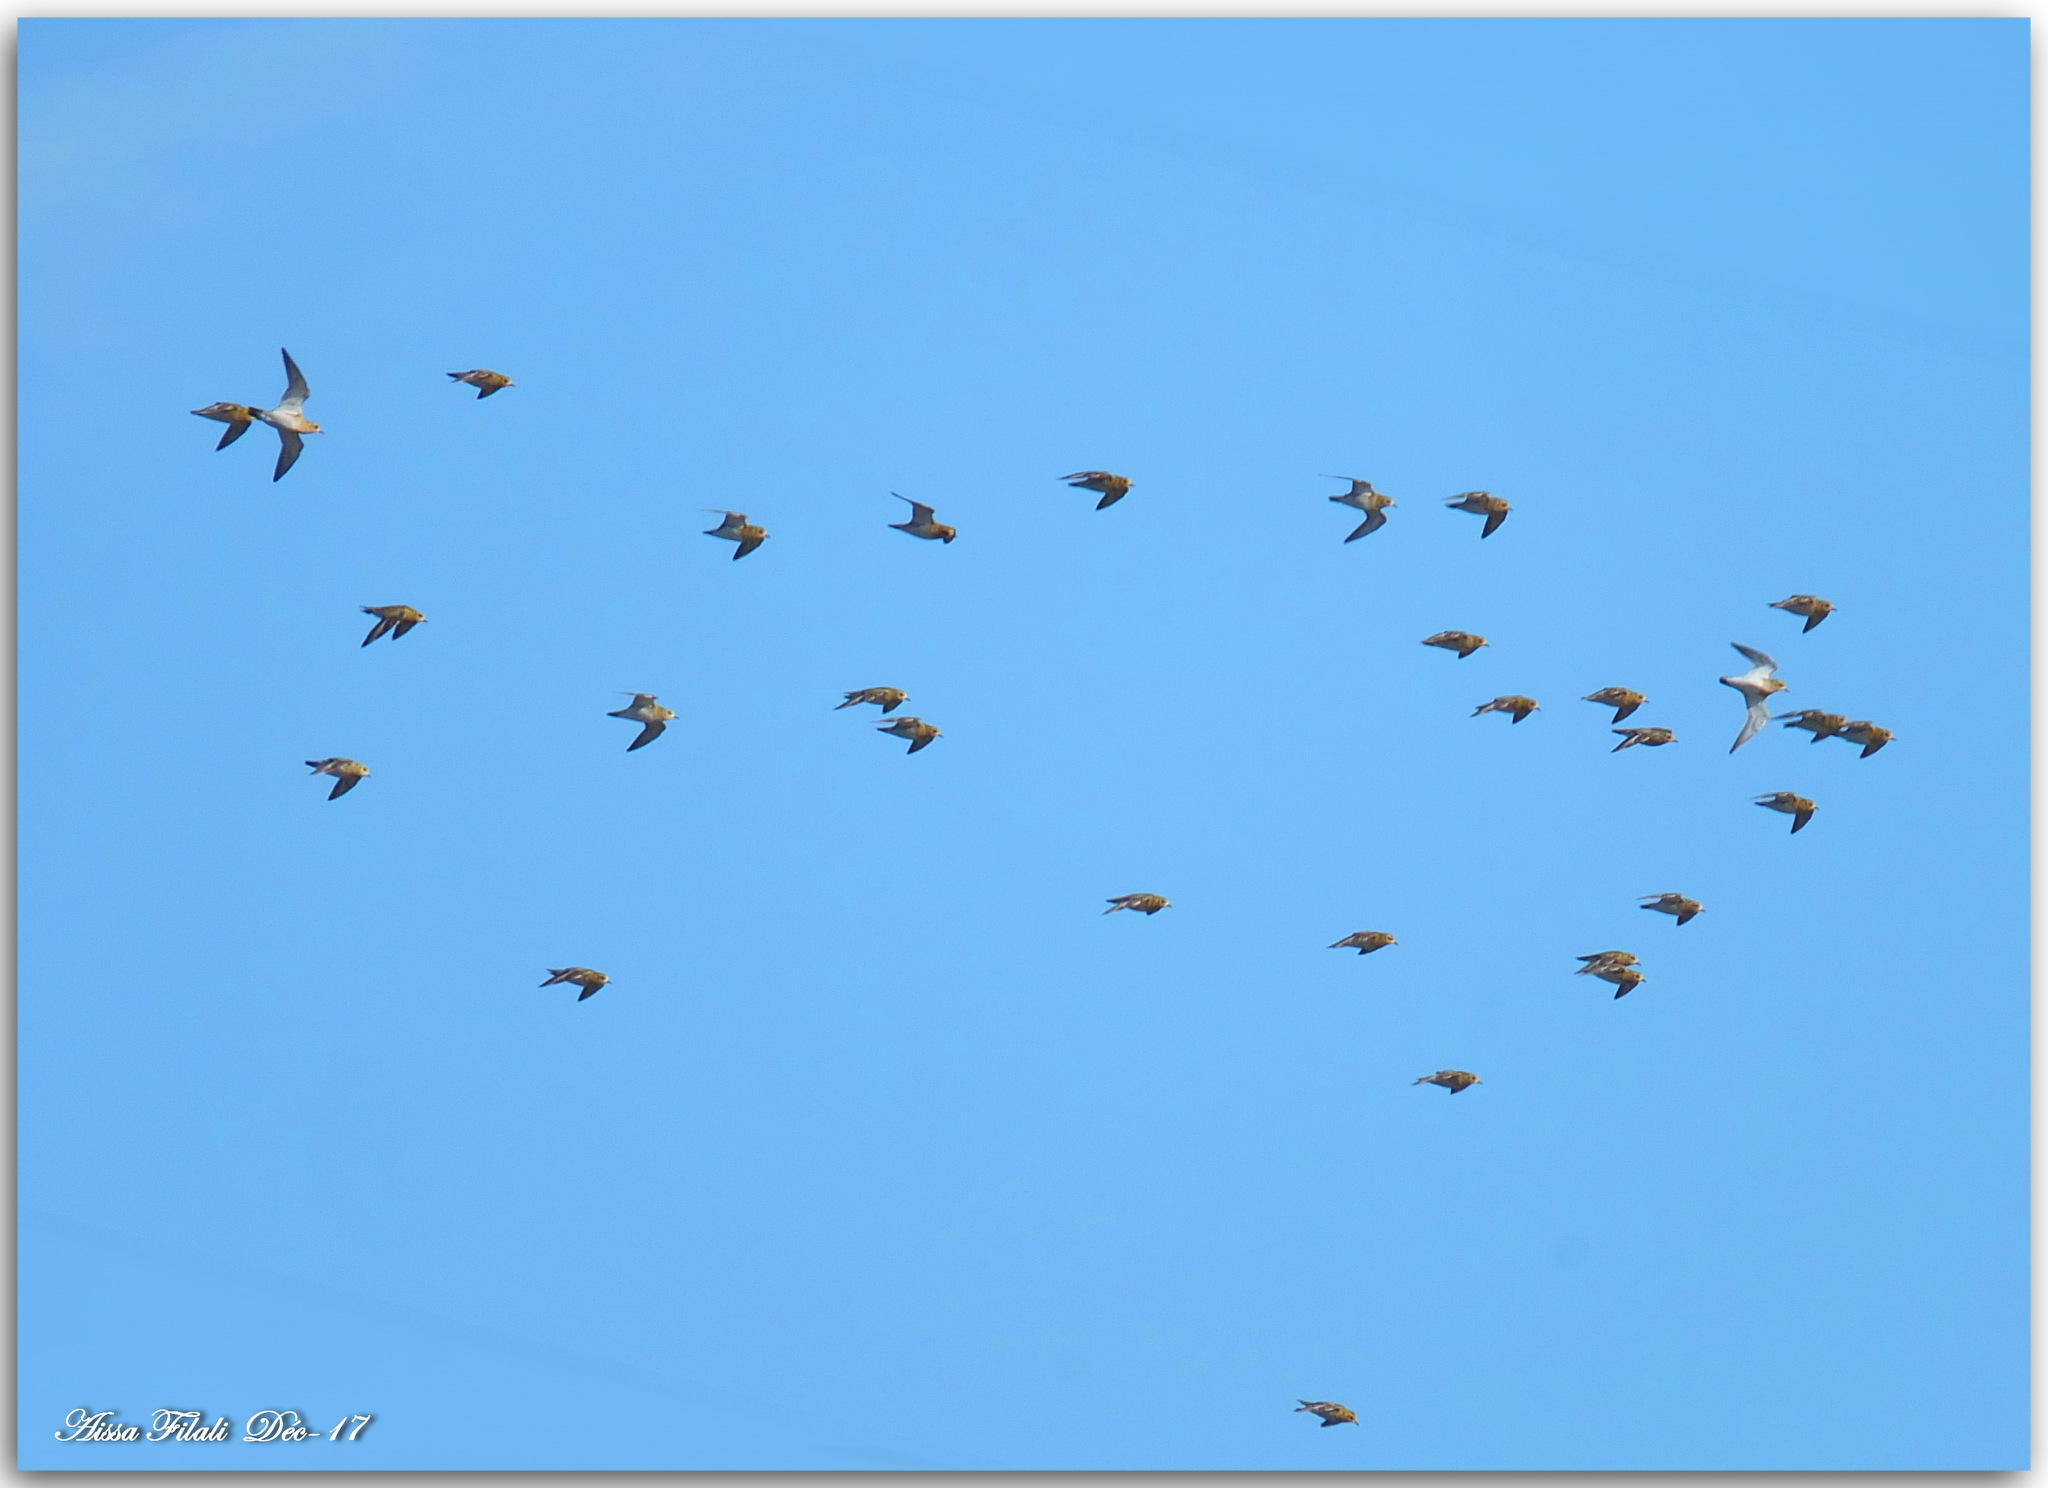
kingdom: Animalia
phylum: Chordata
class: Aves
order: Charadriiformes
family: Charadriidae
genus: Pluvialis
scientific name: Pluvialis apricaria
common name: European golden plover
